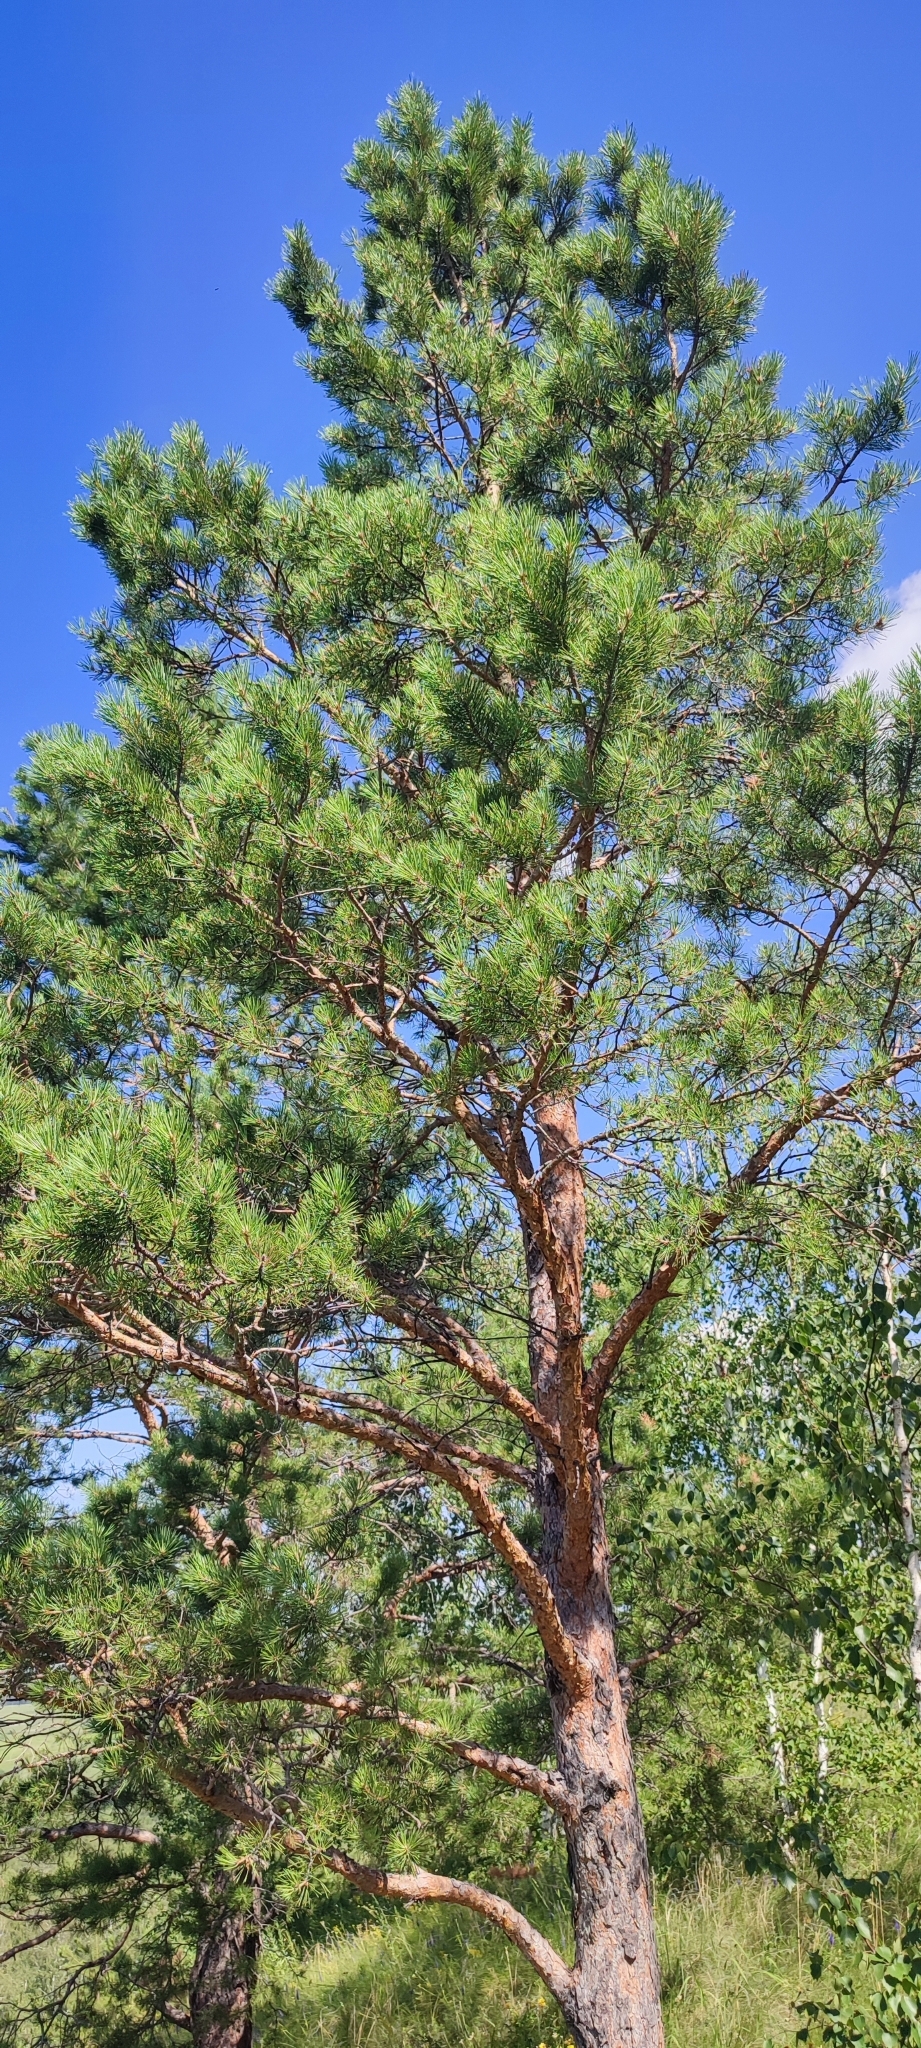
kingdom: Plantae
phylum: Tracheophyta
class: Pinopsida
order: Pinales
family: Pinaceae
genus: Pinus
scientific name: Pinus sylvestris
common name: Scots pine
